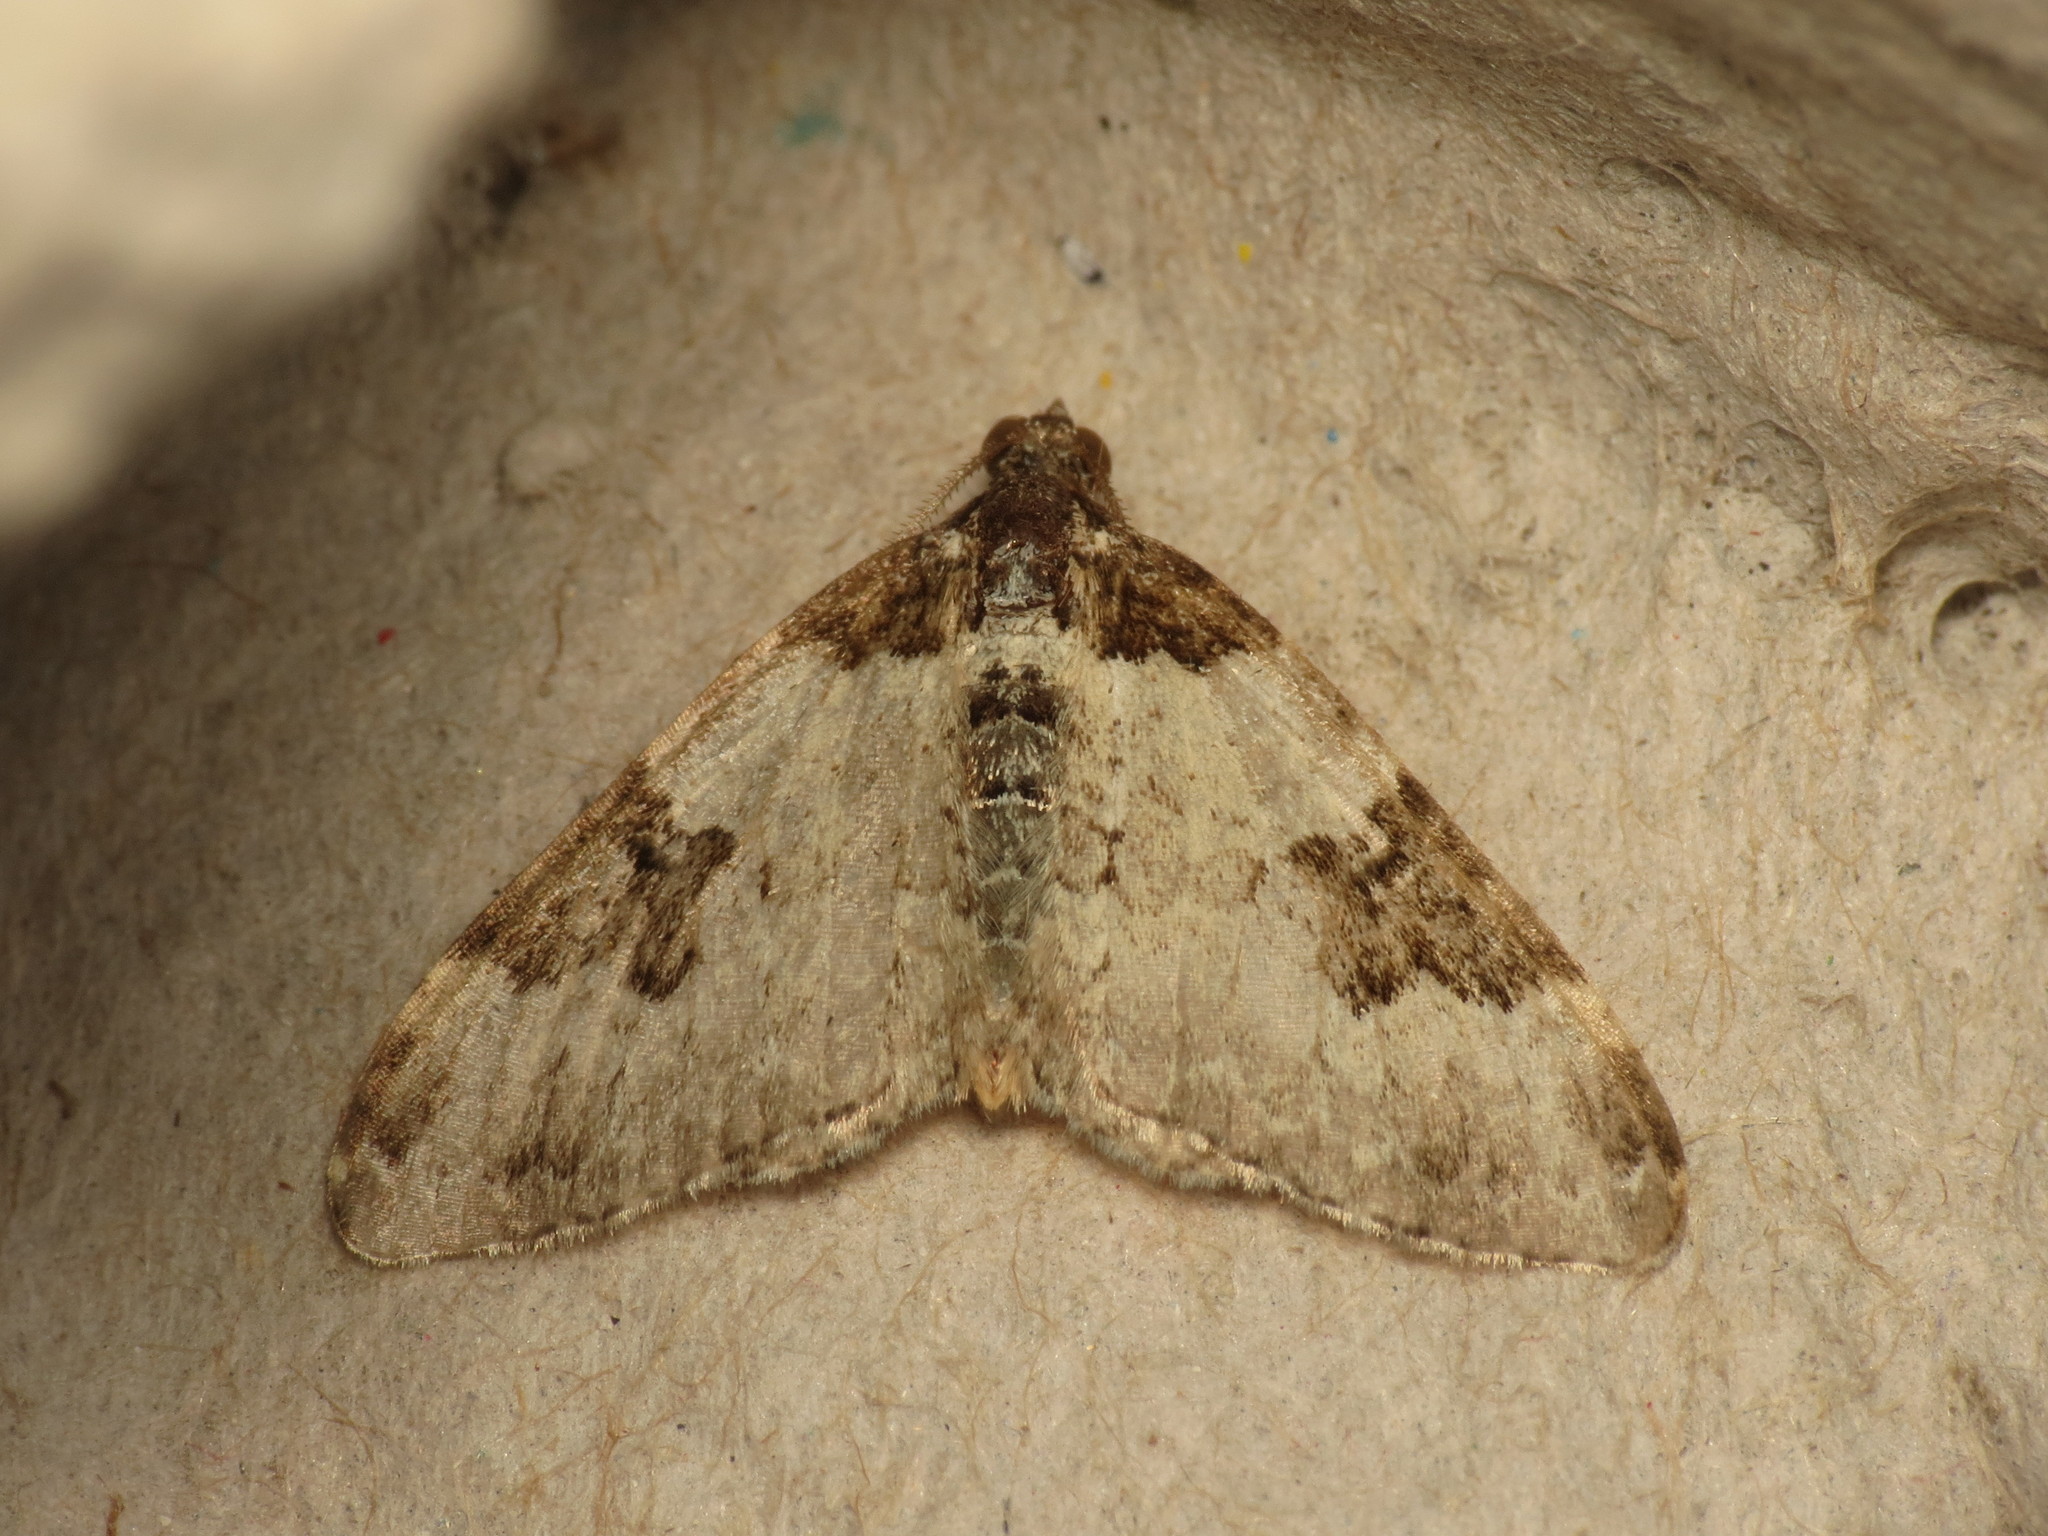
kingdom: Animalia
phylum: Arthropoda
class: Insecta
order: Lepidoptera
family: Geometridae
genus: Xanthorhoe
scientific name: Xanthorhoe fluctuata
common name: Garden carpet
